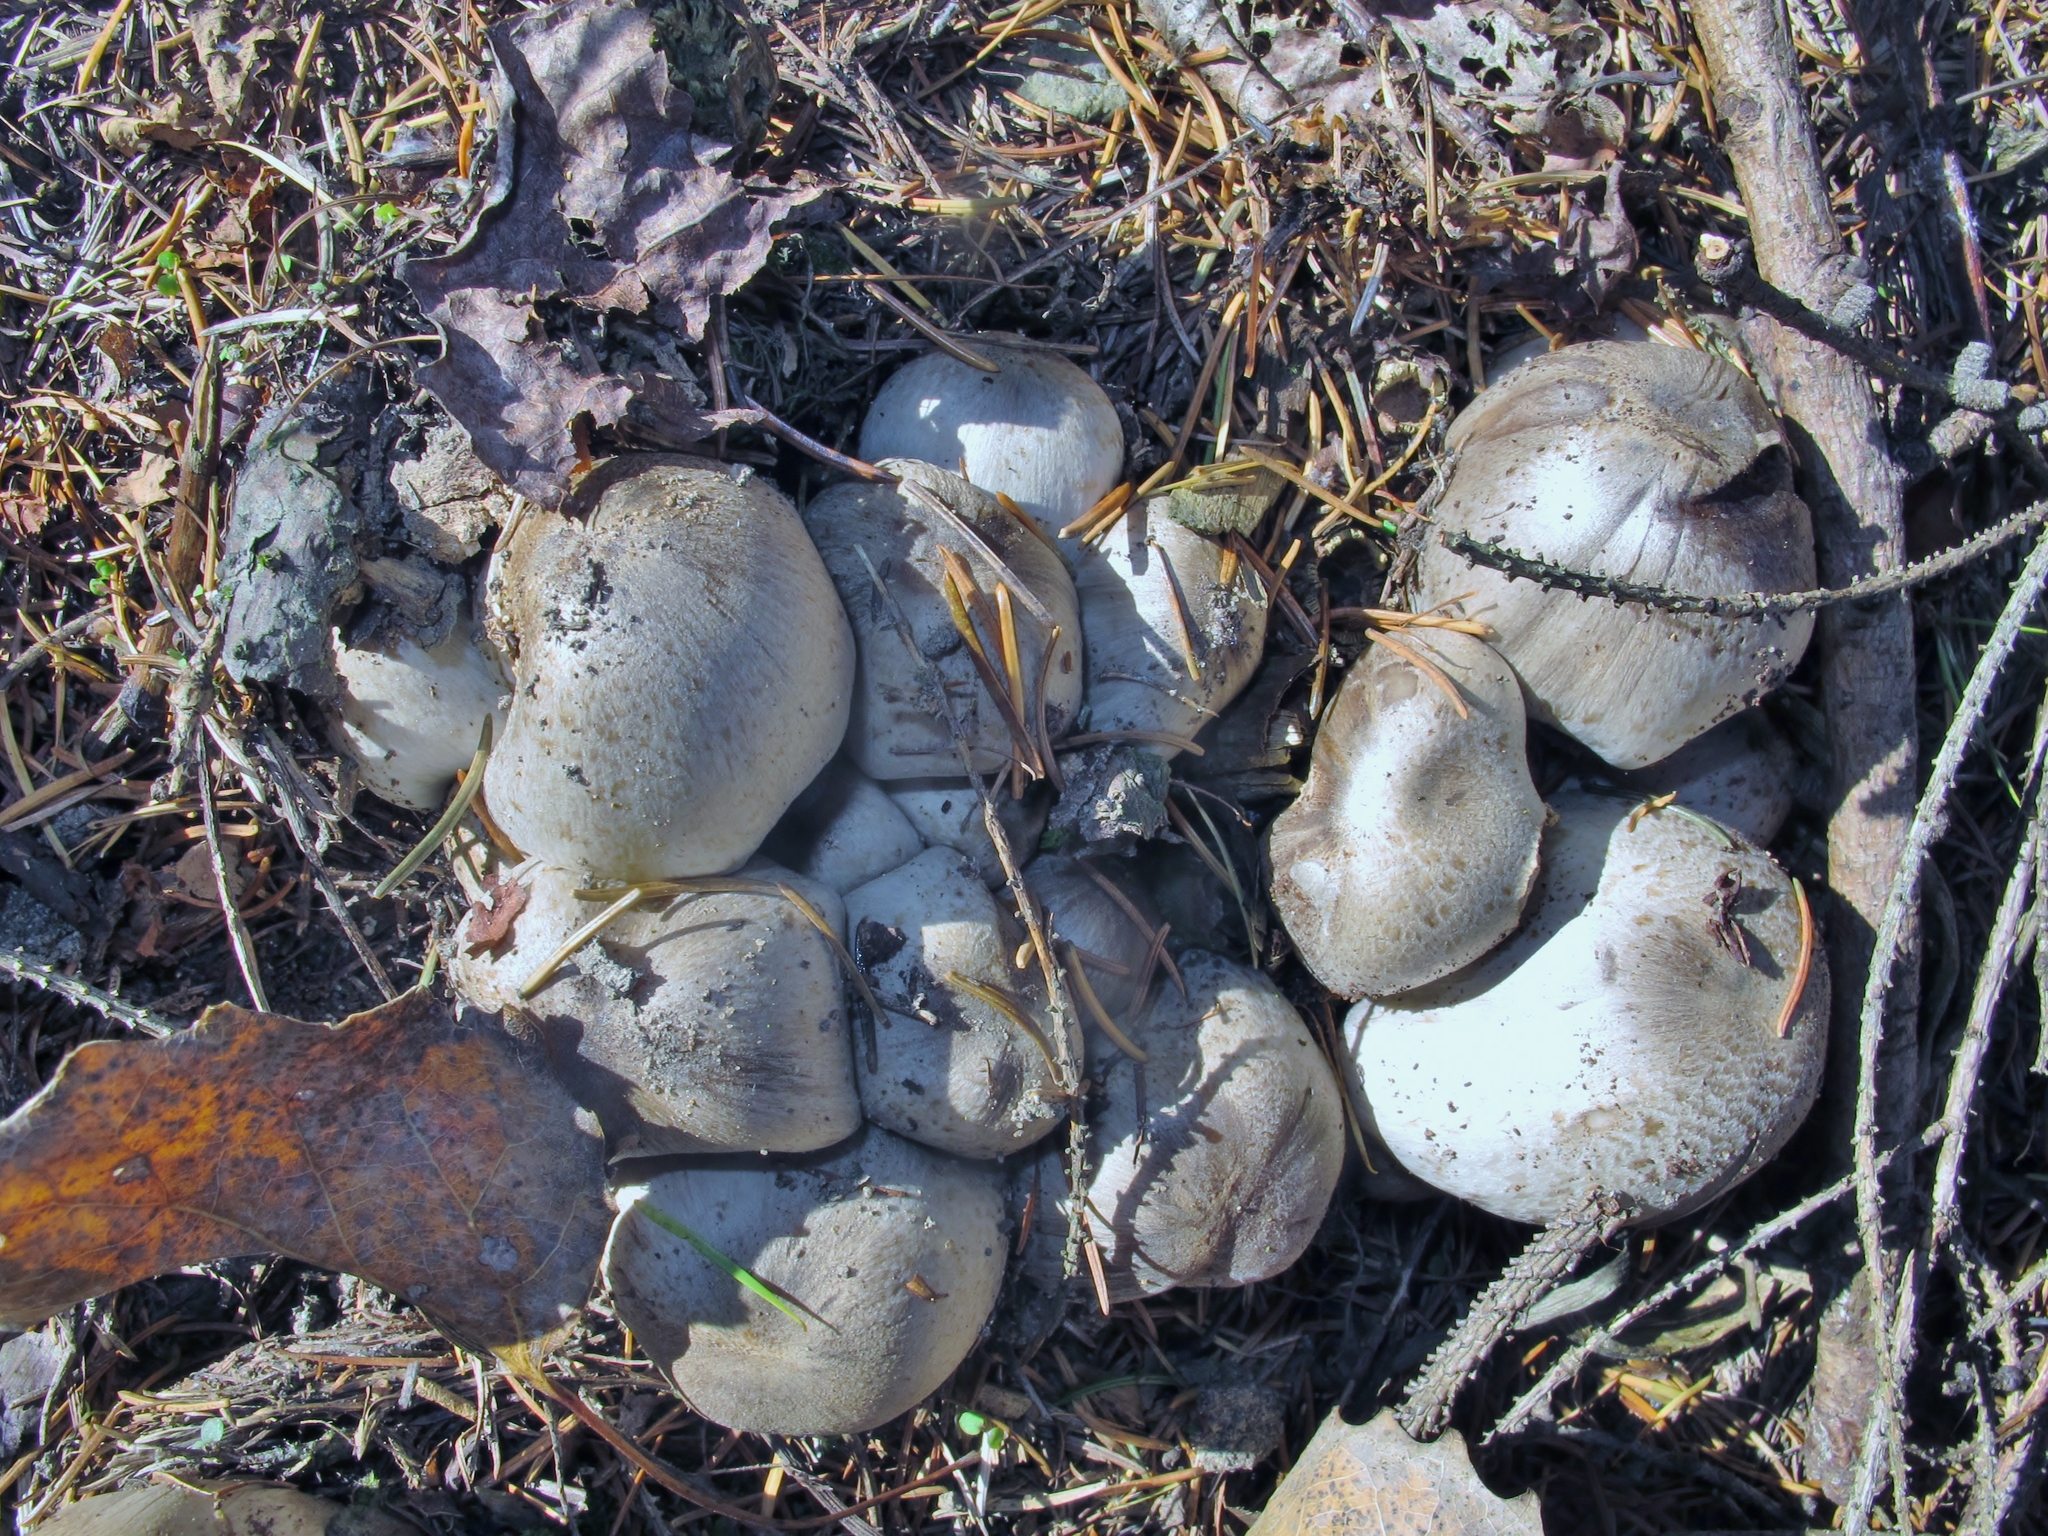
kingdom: Fungi
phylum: Basidiomycota
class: Agaricomycetes
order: Agaricales
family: Psathyrellaceae
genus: Coprinopsis
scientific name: Coprinopsis atramentaria
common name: Common ink-cap
